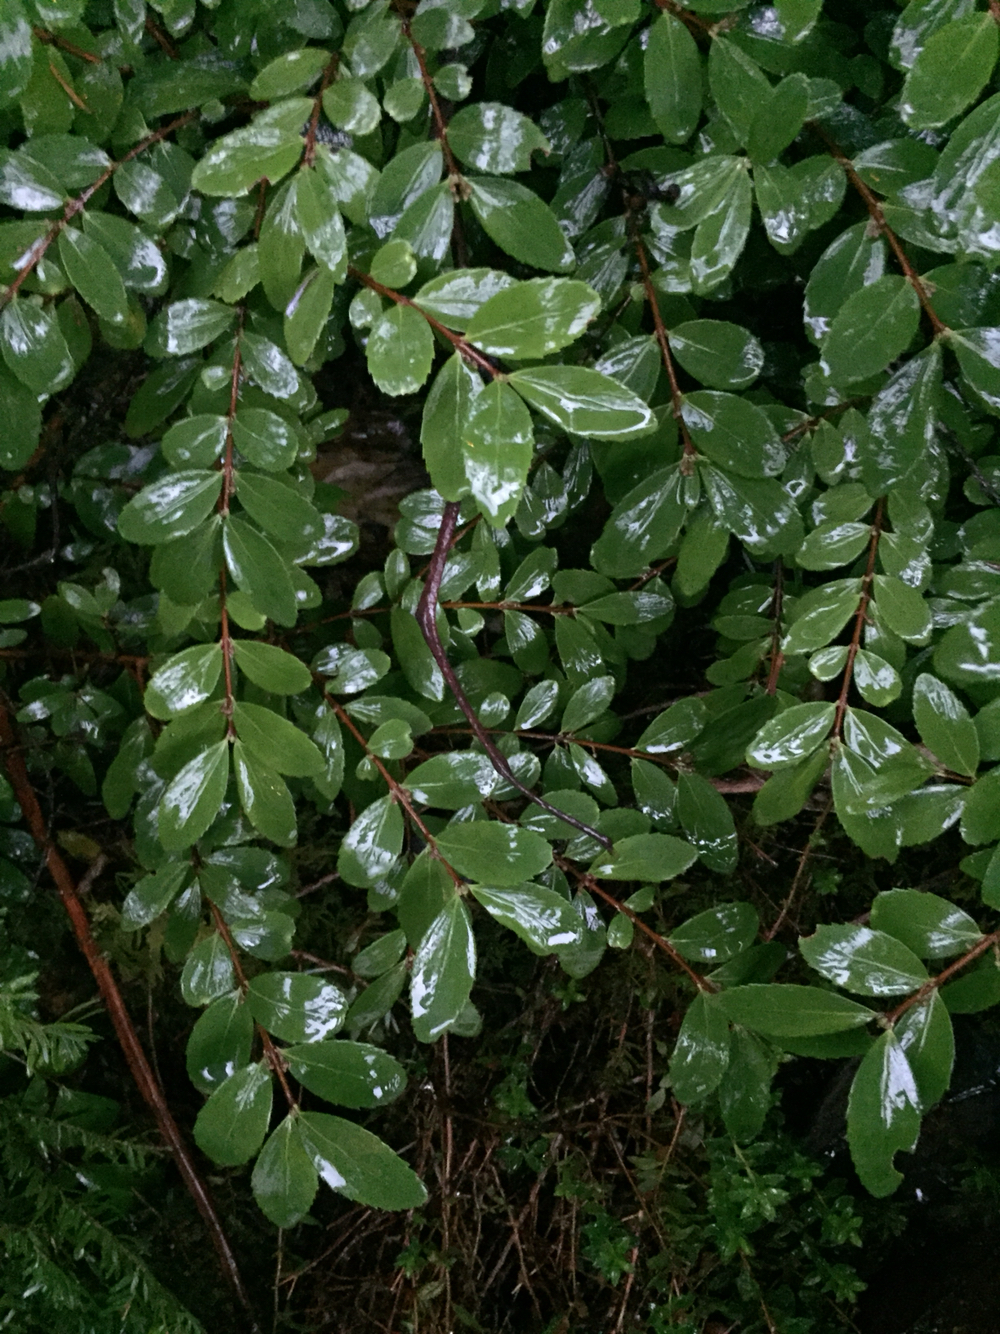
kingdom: Plantae
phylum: Tracheophyta
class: Magnoliopsida
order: Celastrales
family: Celastraceae
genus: Paxistima
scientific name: Paxistima myrsinites
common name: Mountain-lover
